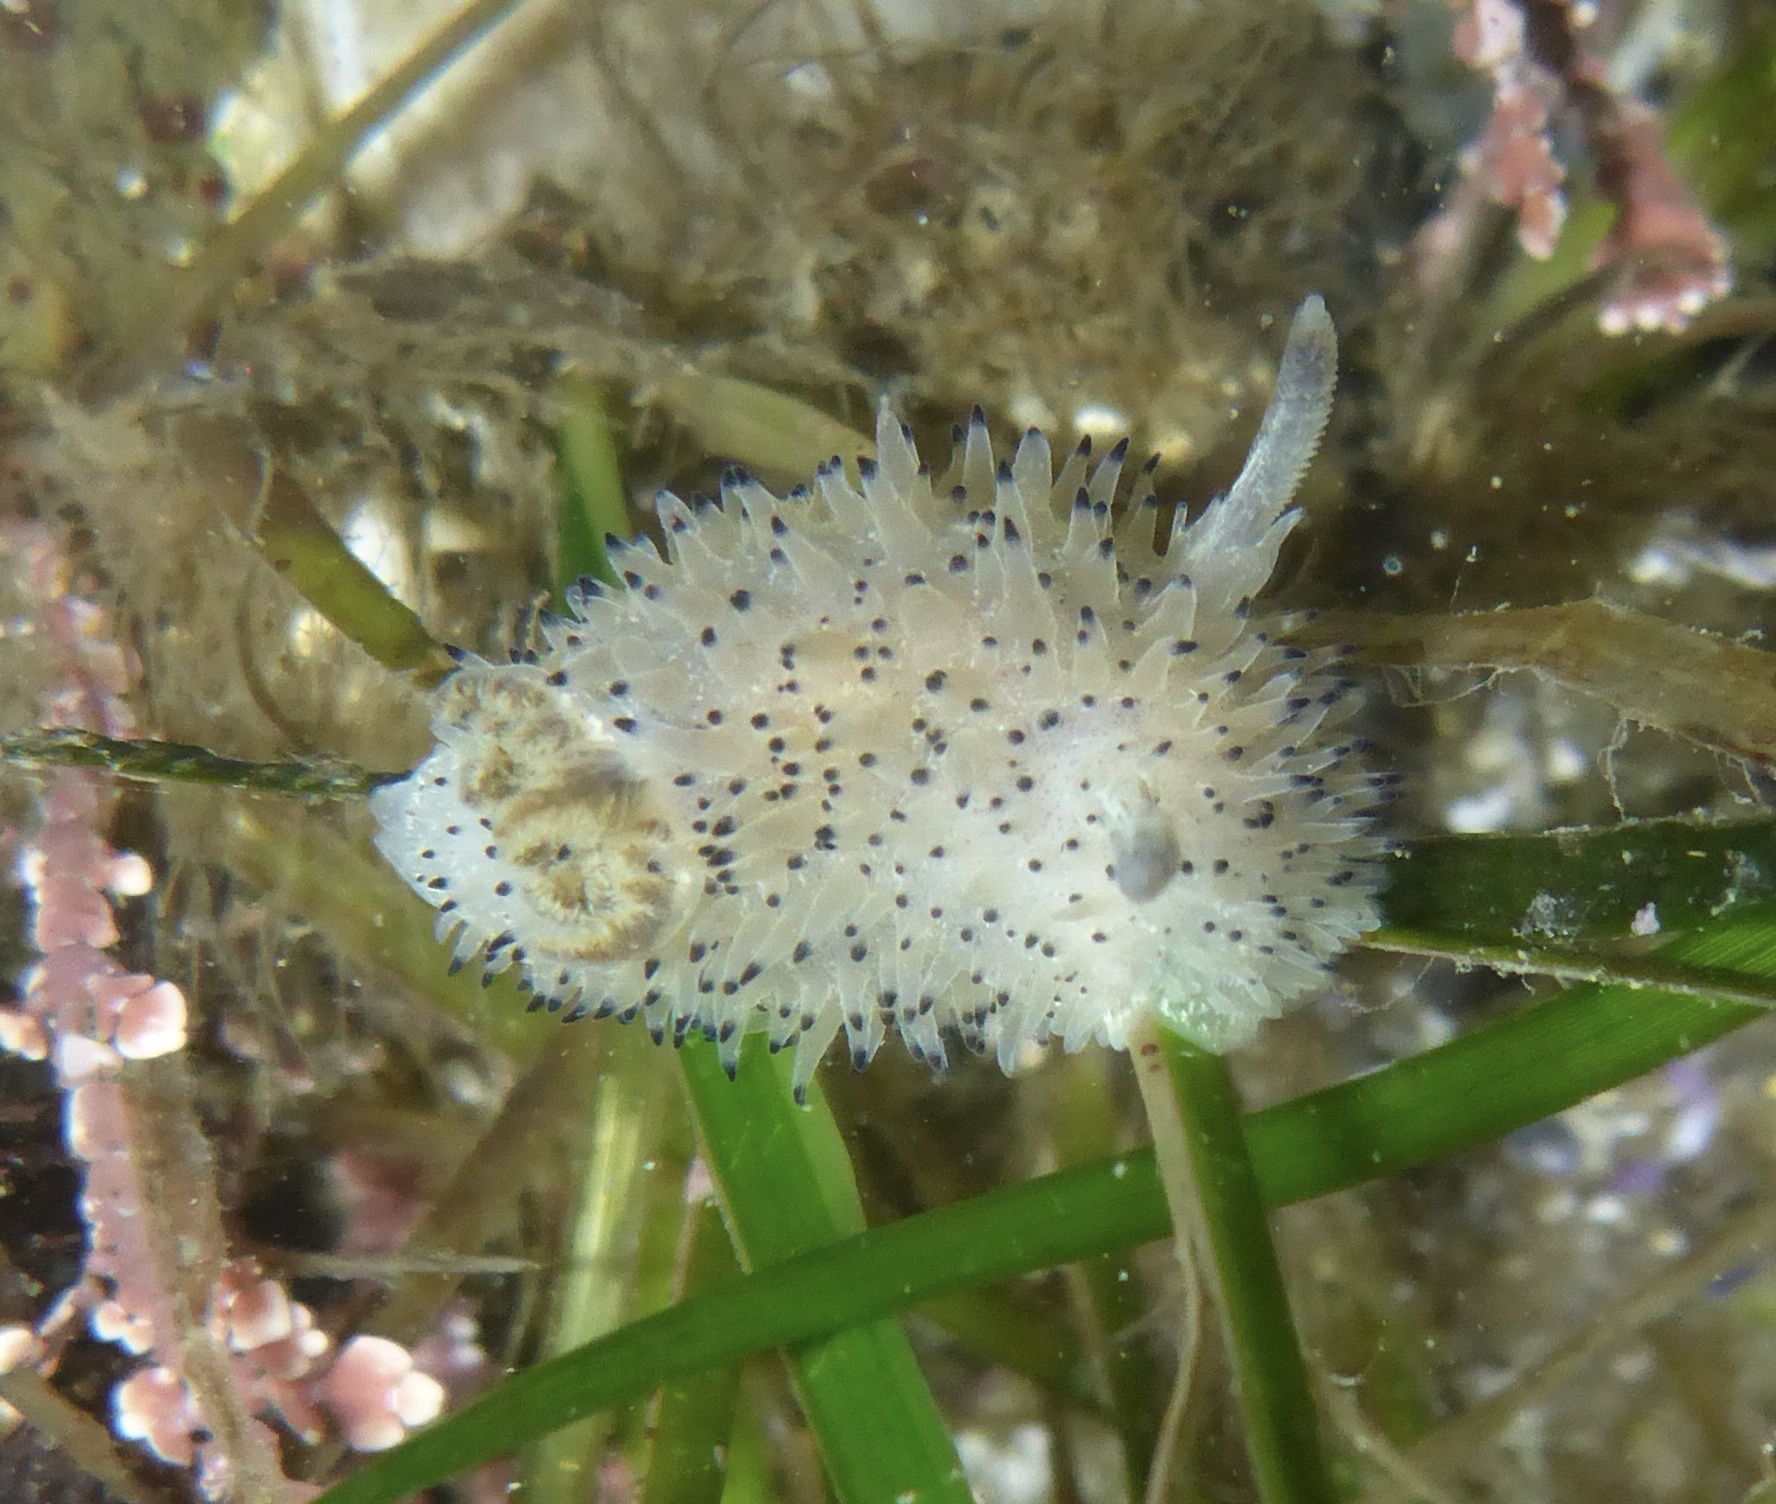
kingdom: Animalia
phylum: Mollusca
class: Gastropoda
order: Nudibranchia
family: Onchidorididae
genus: Acanthodoris
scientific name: Acanthodoris rhodoceras
